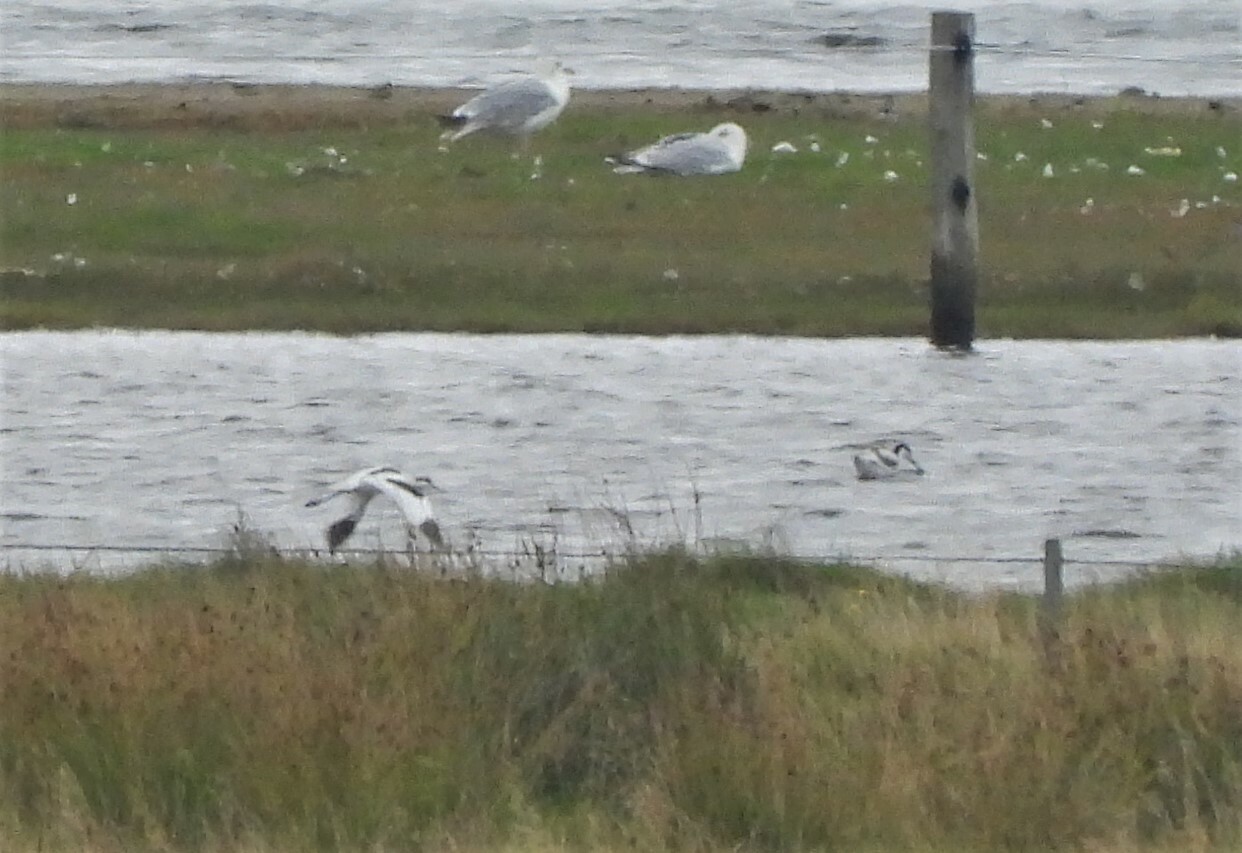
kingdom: Animalia
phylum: Chordata
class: Aves
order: Charadriiformes
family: Recurvirostridae
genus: Recurvirostra
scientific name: Recurvirostra avosetta
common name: Pied avocet
